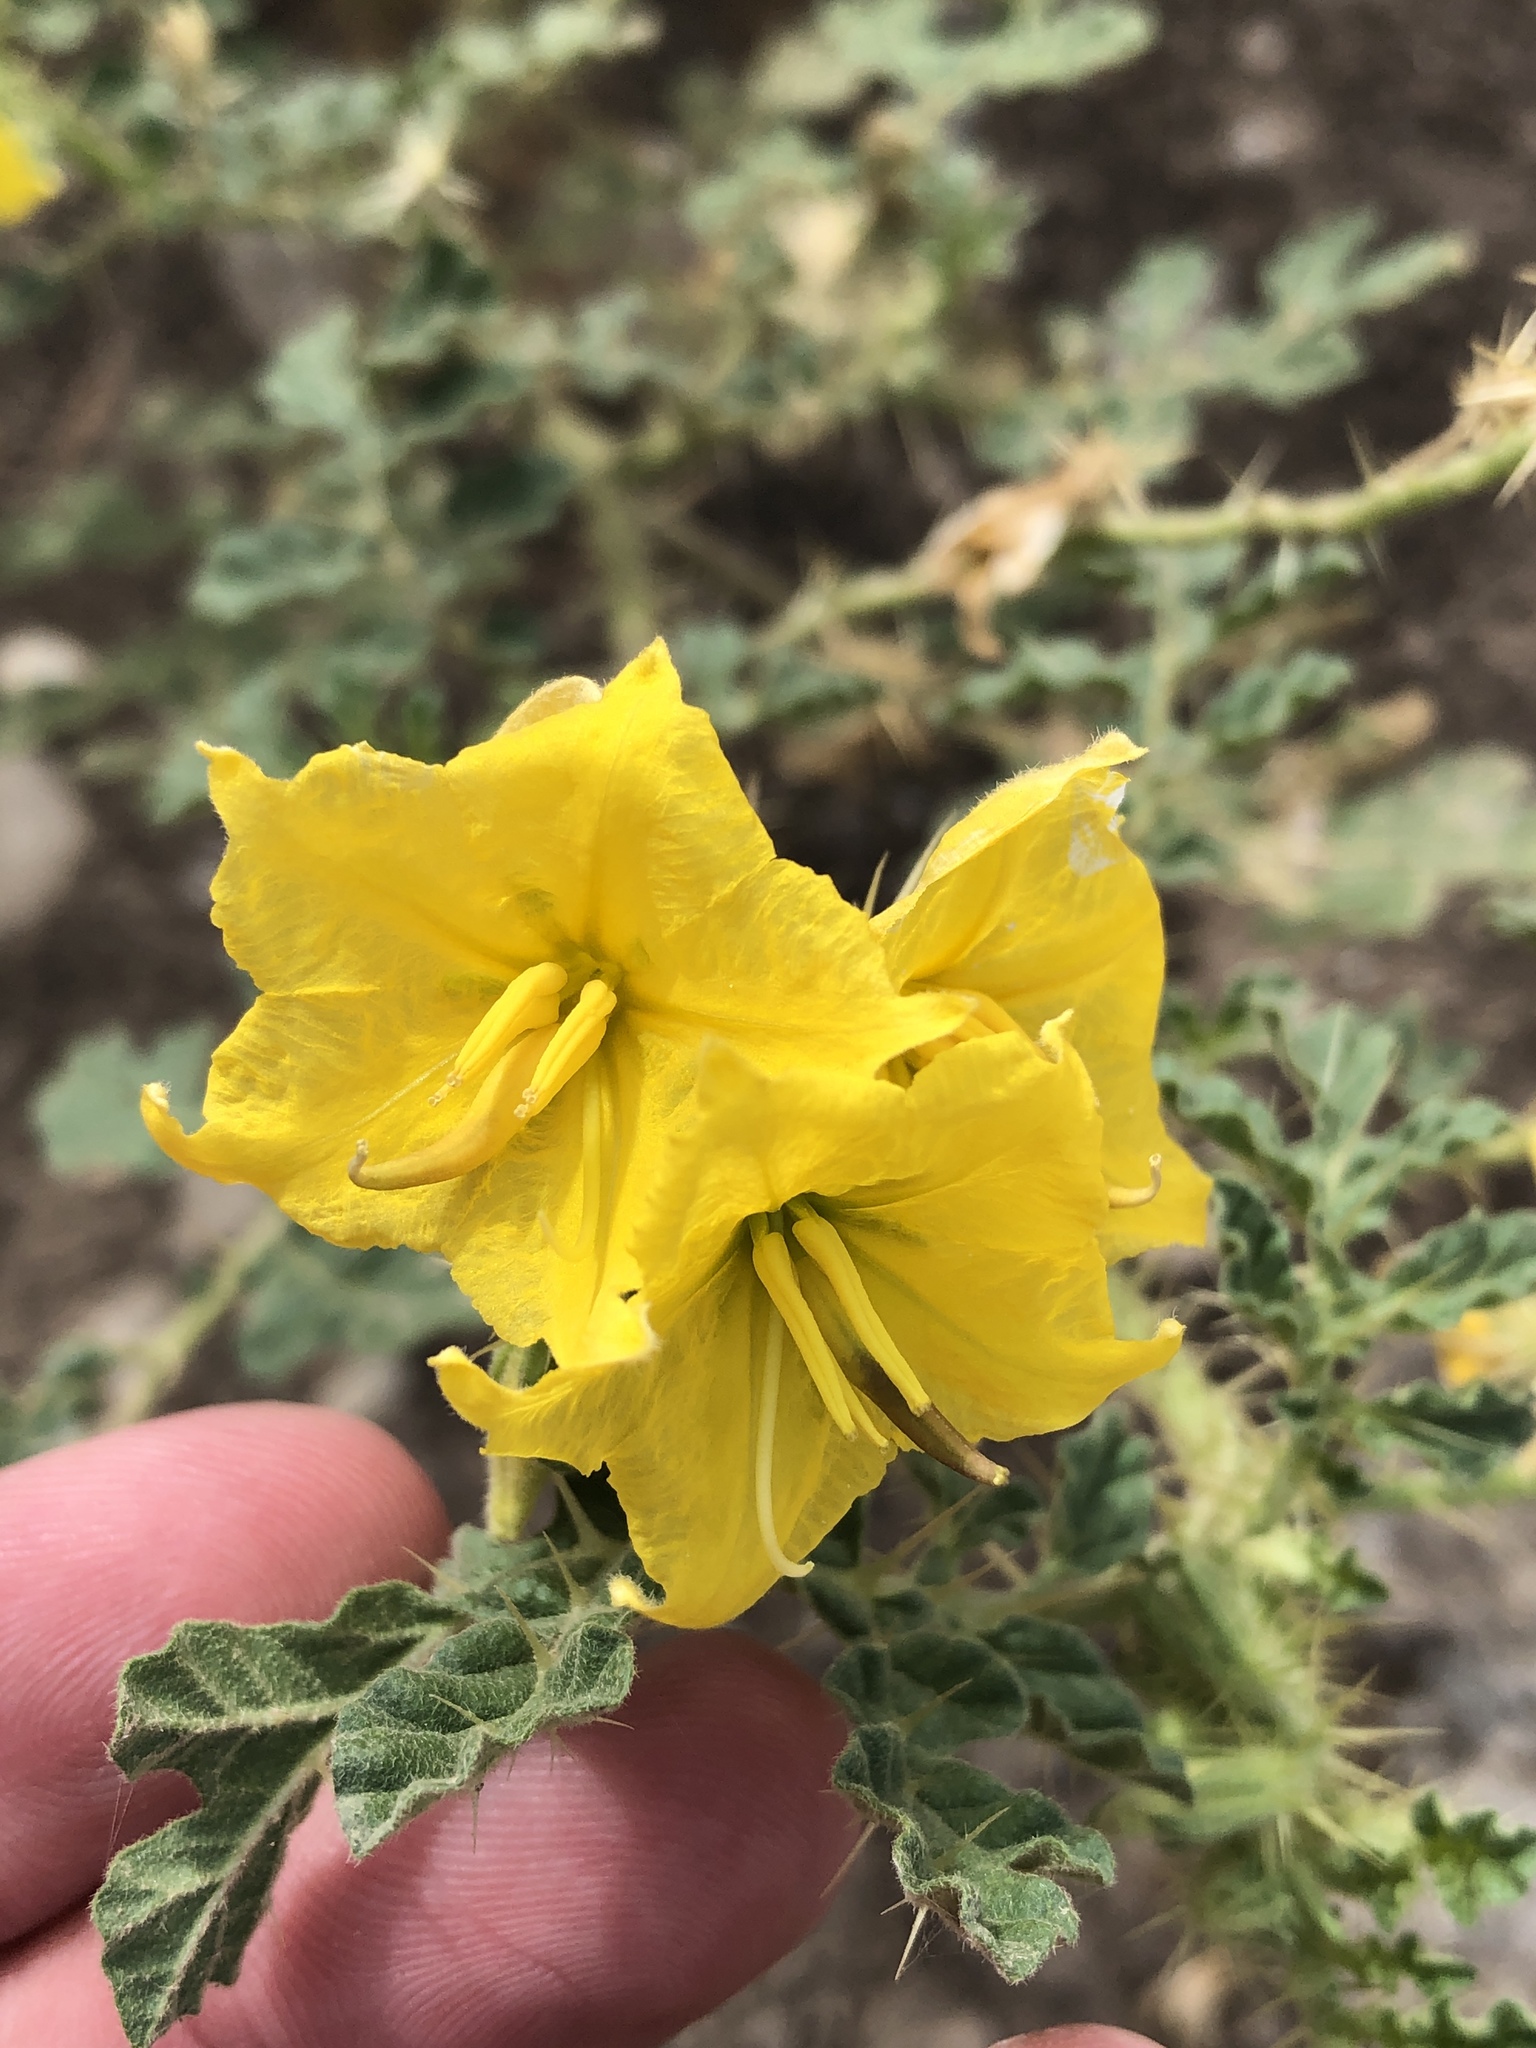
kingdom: Plantae
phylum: Tracheophyta
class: Magnoliopsida
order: Solanales
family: Solanaceae
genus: Solanum
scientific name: Solanum angustifolium
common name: Buffalobur nightshade
